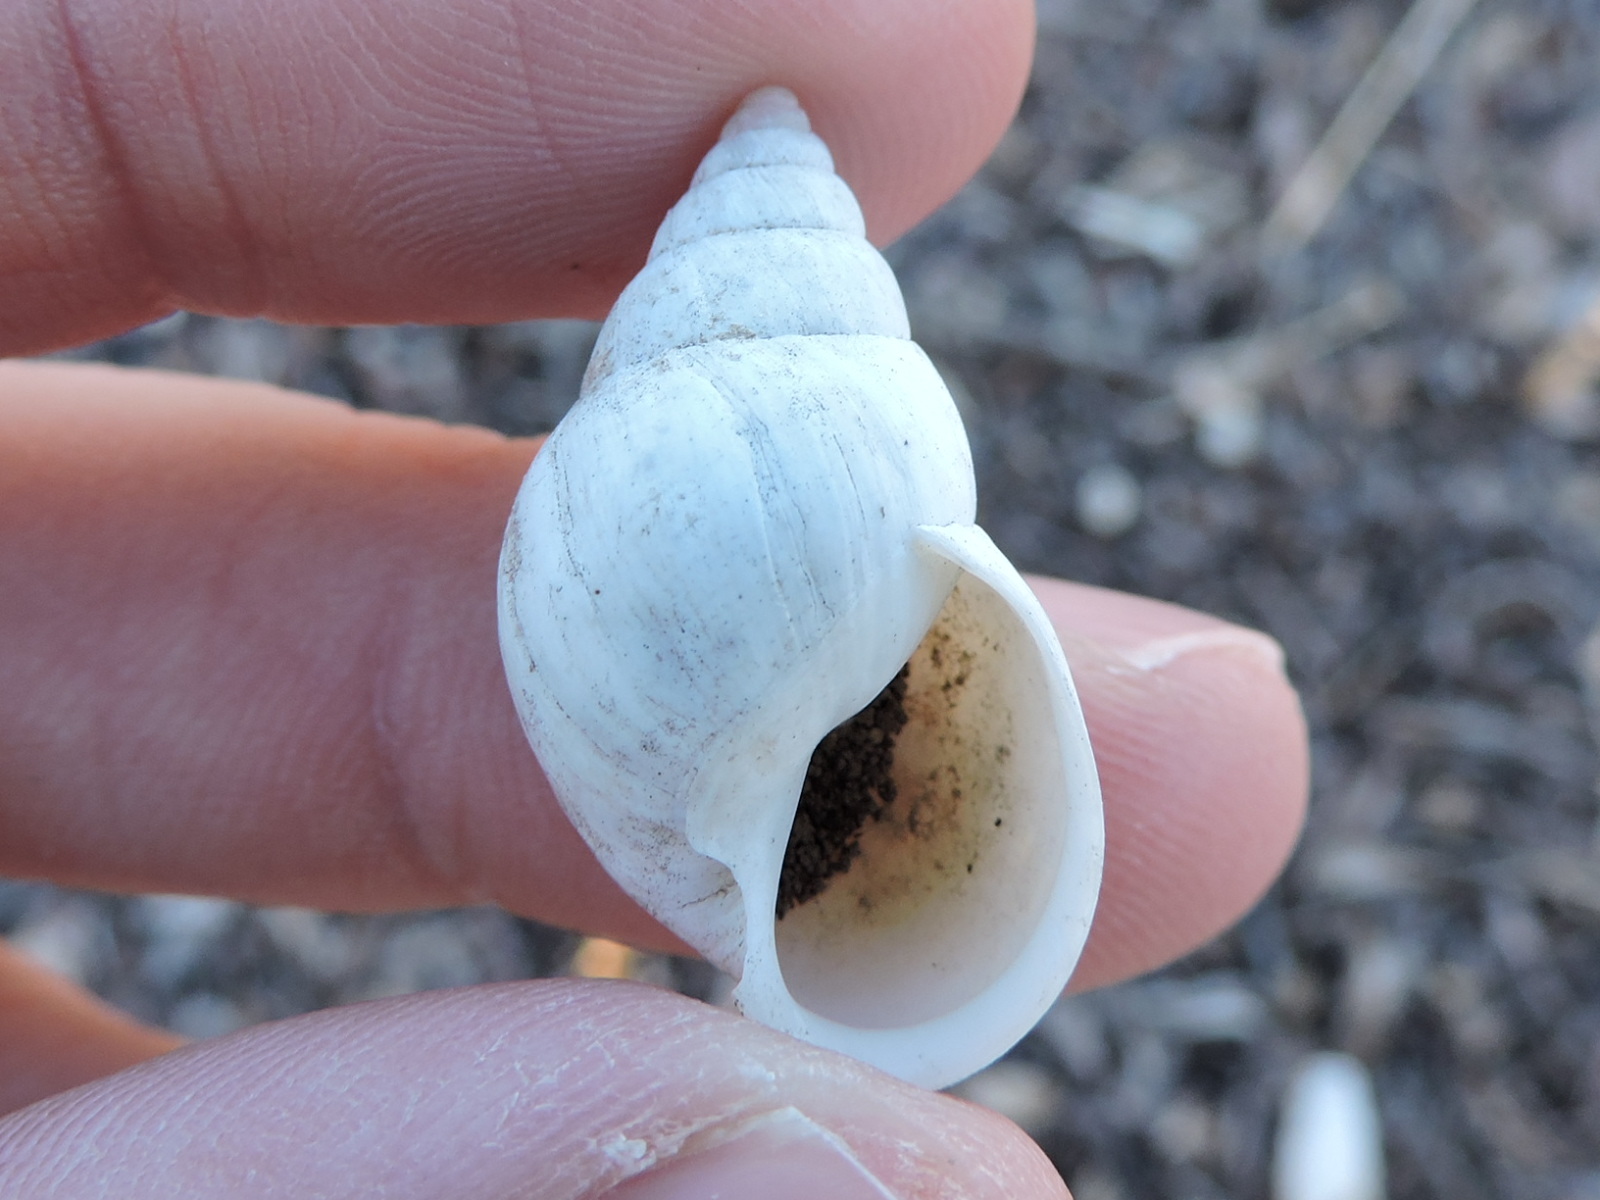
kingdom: Animalia
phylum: Mollusca
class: Gastropoda
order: Stylommatophora
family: Bulimulidae
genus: Rabdotus
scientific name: Rabdotus dealbatus
